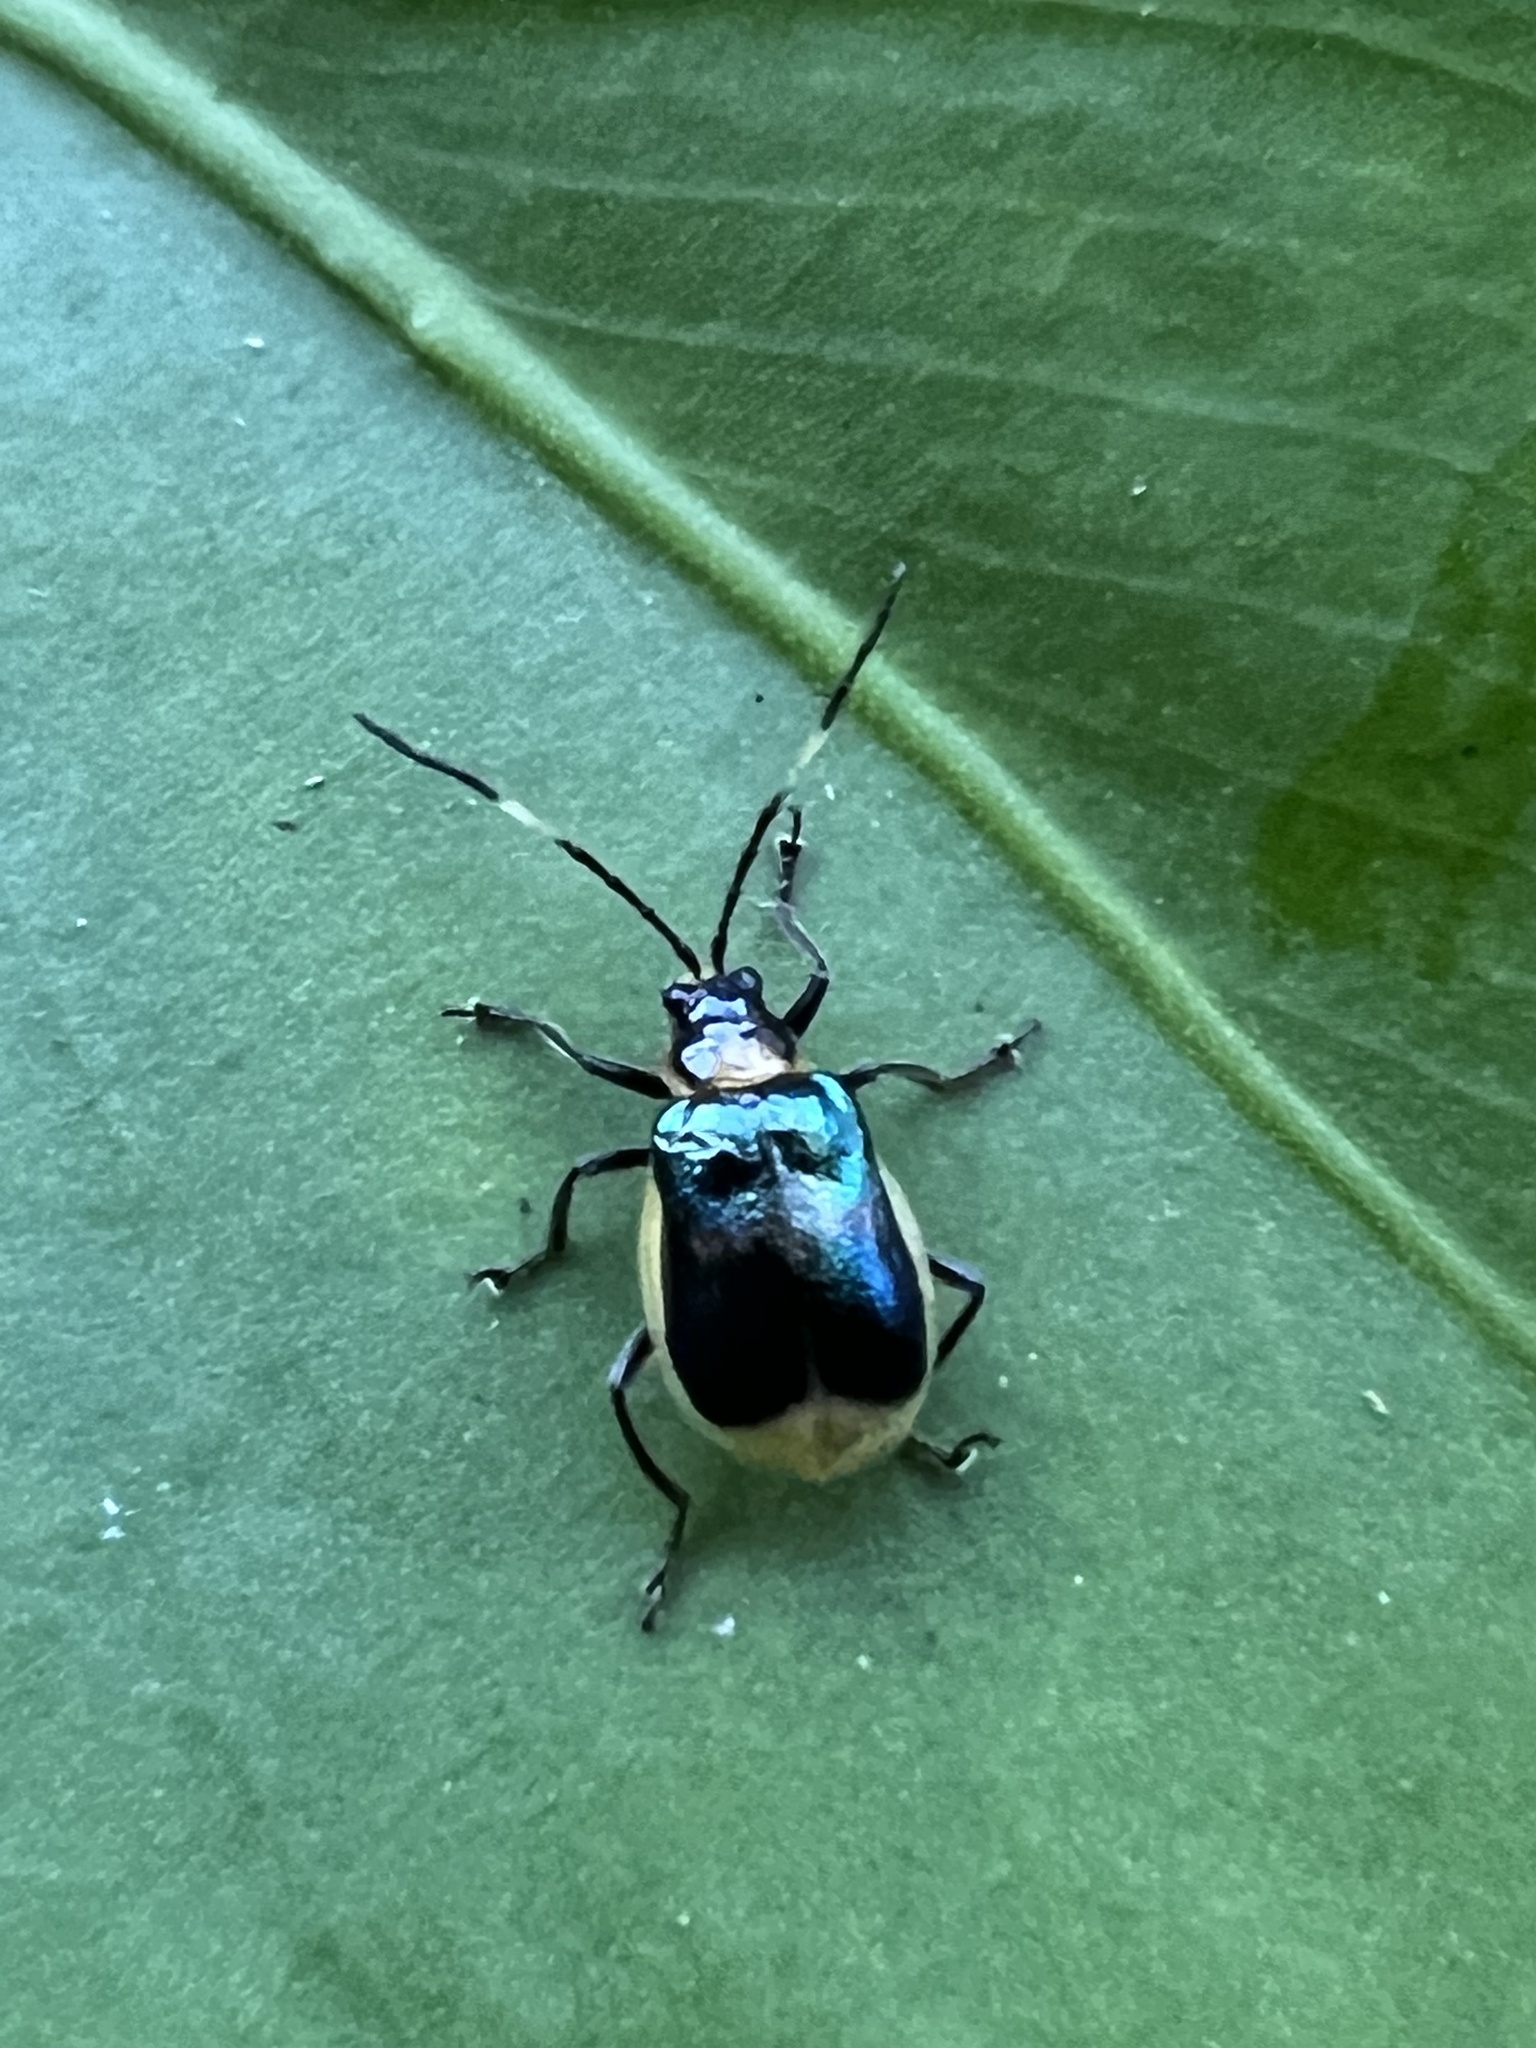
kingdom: Animalia
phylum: Arthropoda
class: Insecta
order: Coleoptera
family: Chrysomelidae
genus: Isotes
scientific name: Isotes
